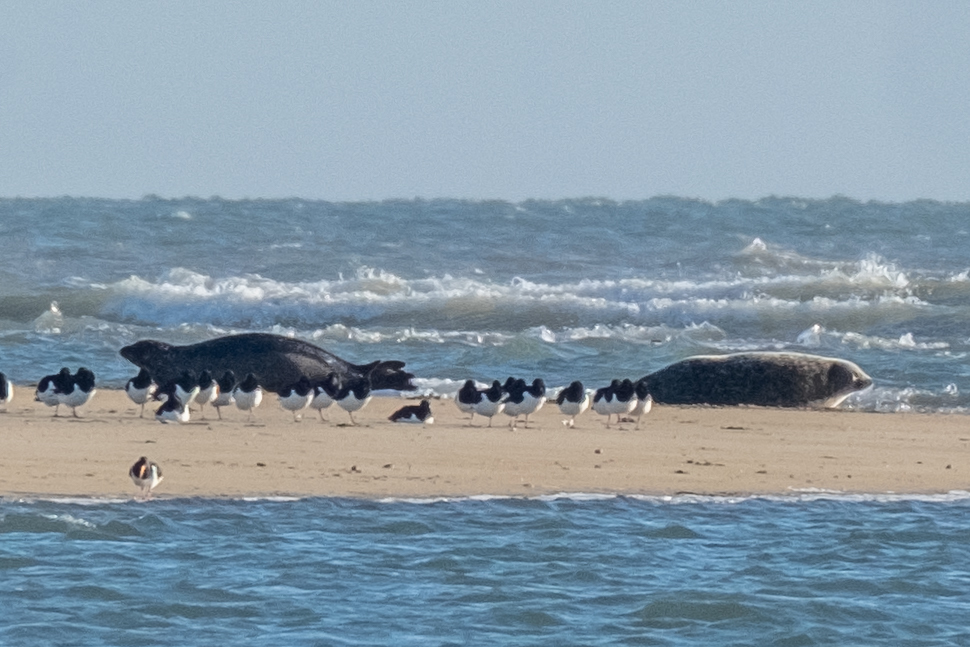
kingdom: Animalia
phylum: Chordata
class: Mammalia
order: Carnivora
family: Phocidae
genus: Phoca
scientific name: Phoca vitulina
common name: Harbor seal
